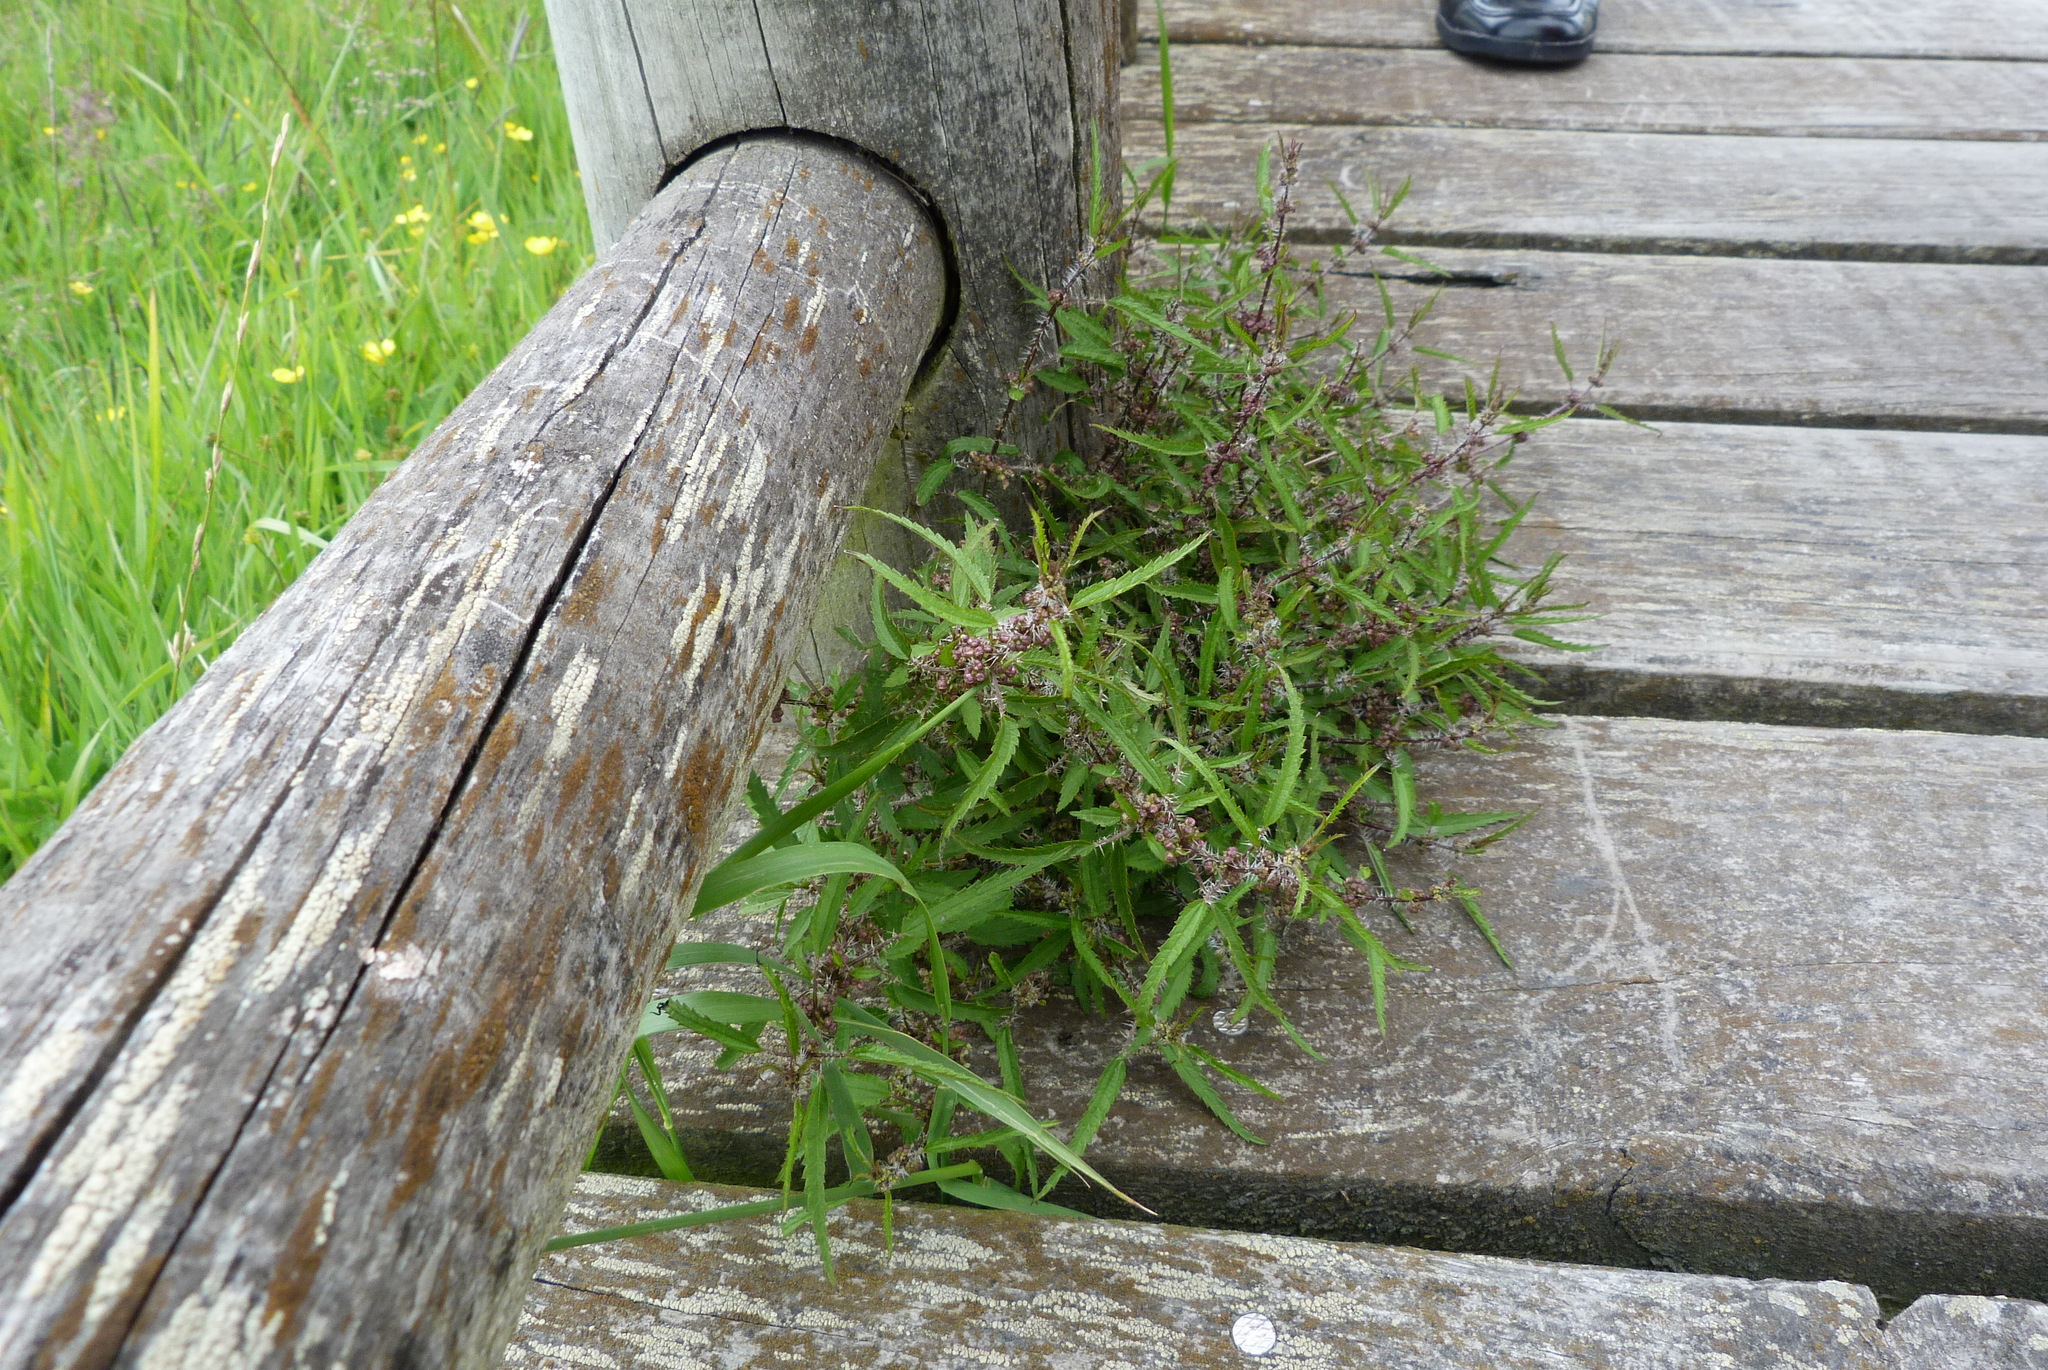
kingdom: Plantae
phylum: Tracheophyta
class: Magnoliopsida
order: Rosales
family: Urticaceae
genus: Urtica
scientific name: Urtica perconfusa
